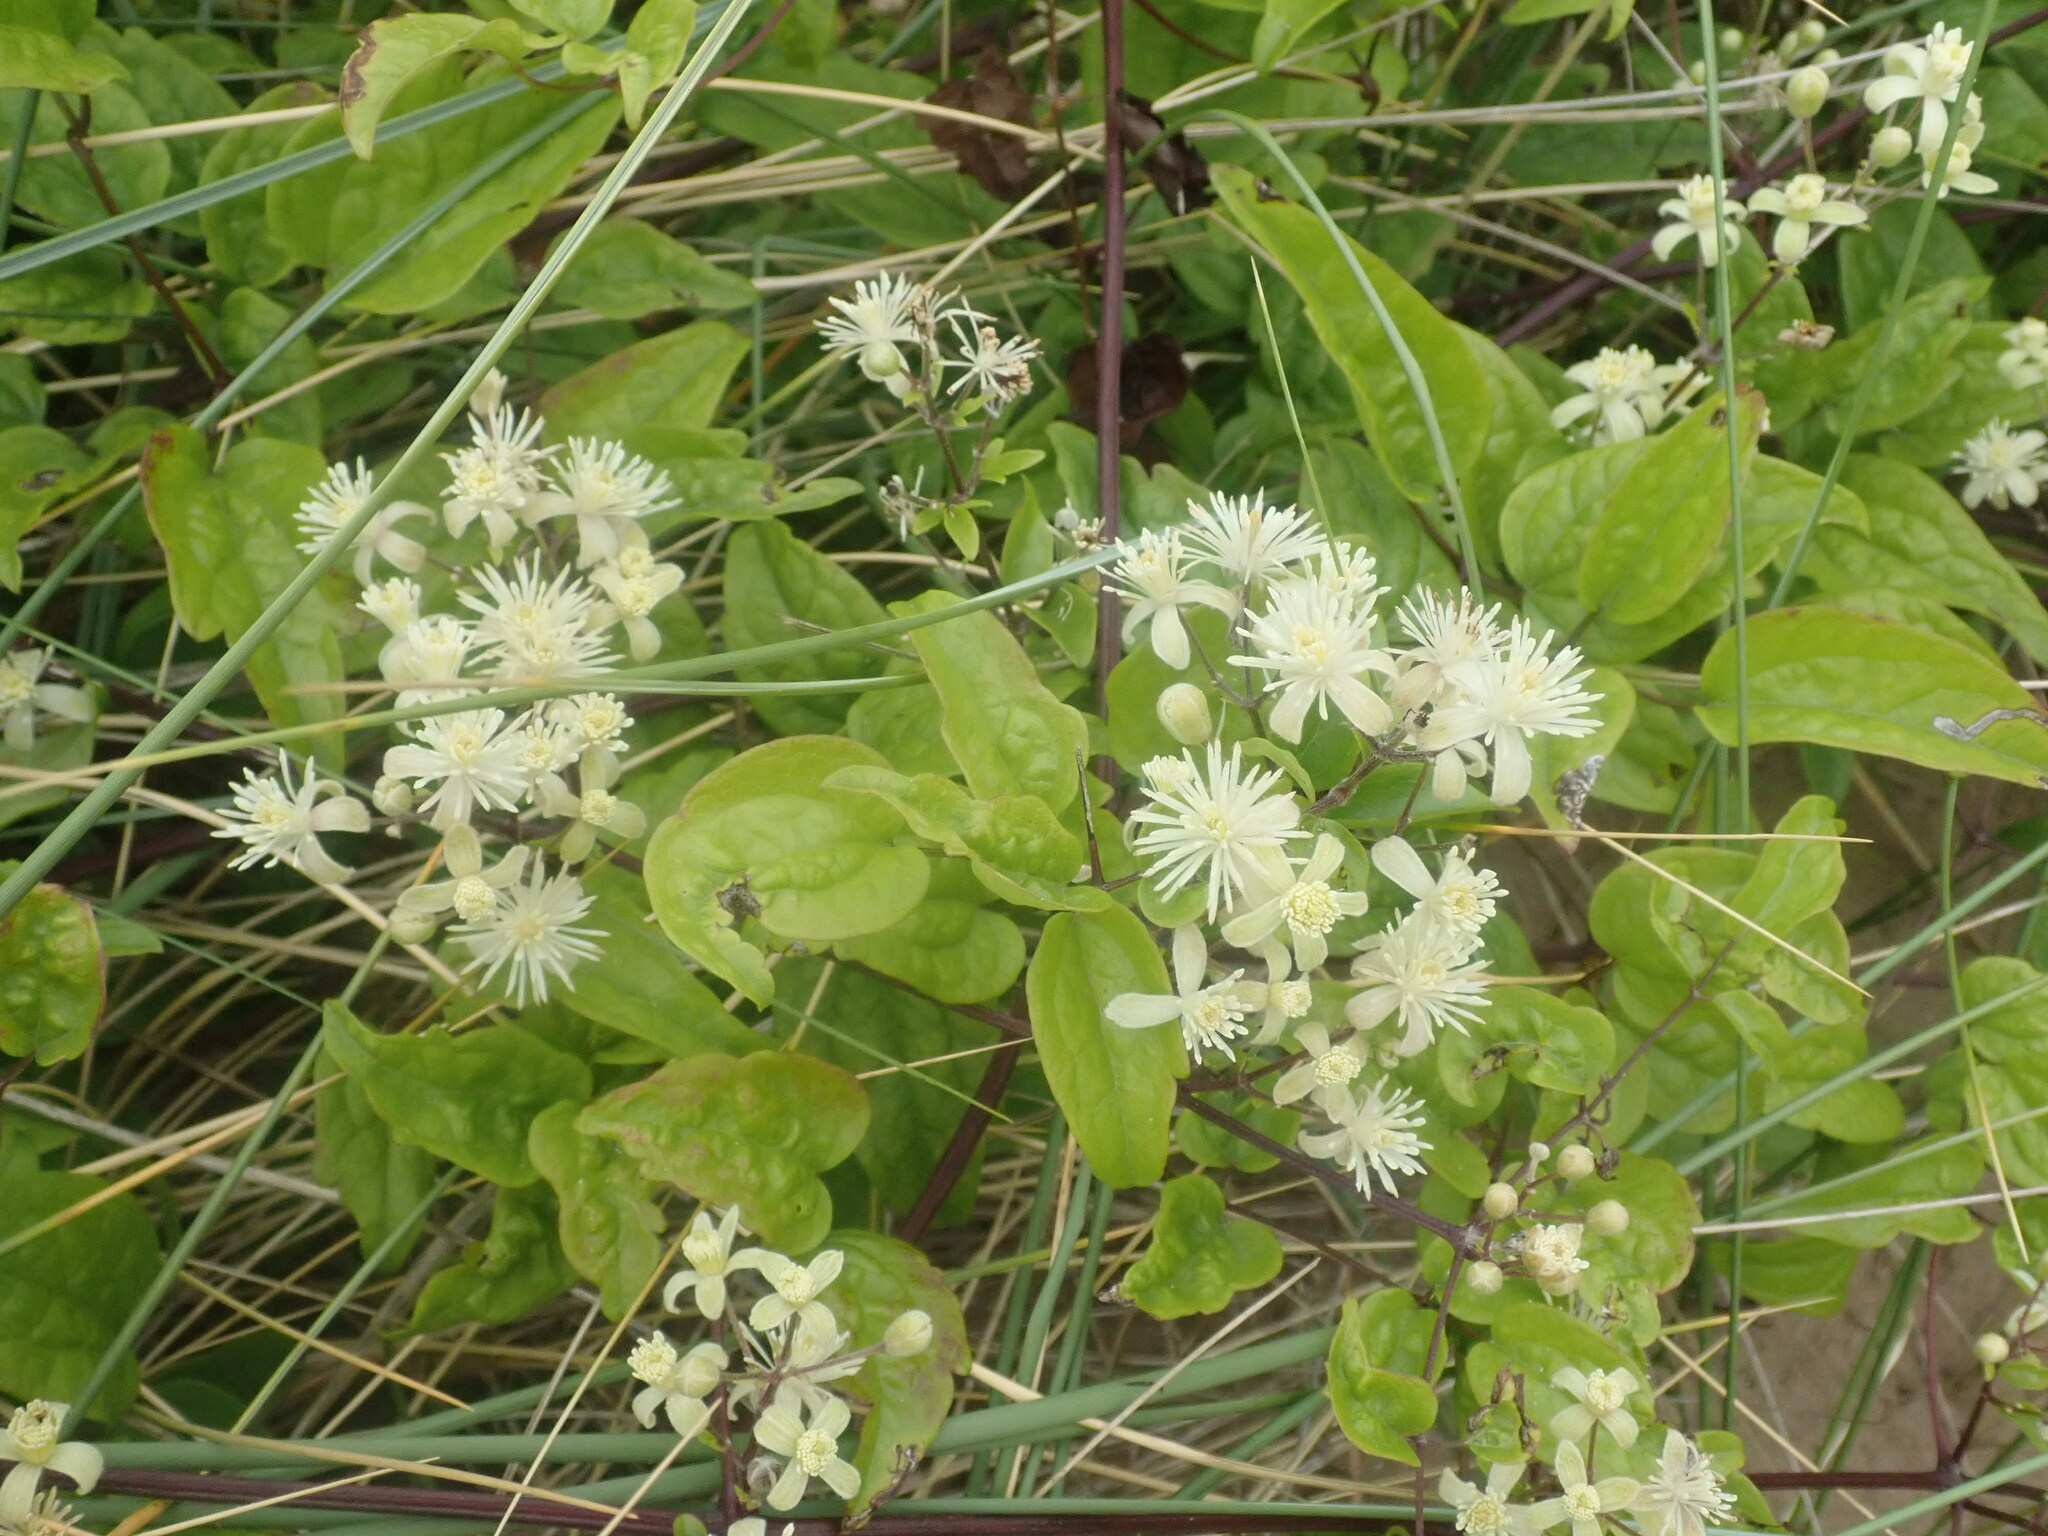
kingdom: Plantae
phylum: Tracheophyta
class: Magnoliopsida
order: Ranunculales
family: Ranunculaceae
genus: Clematis
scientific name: Clematis vitalba
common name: Evergreen clematis
